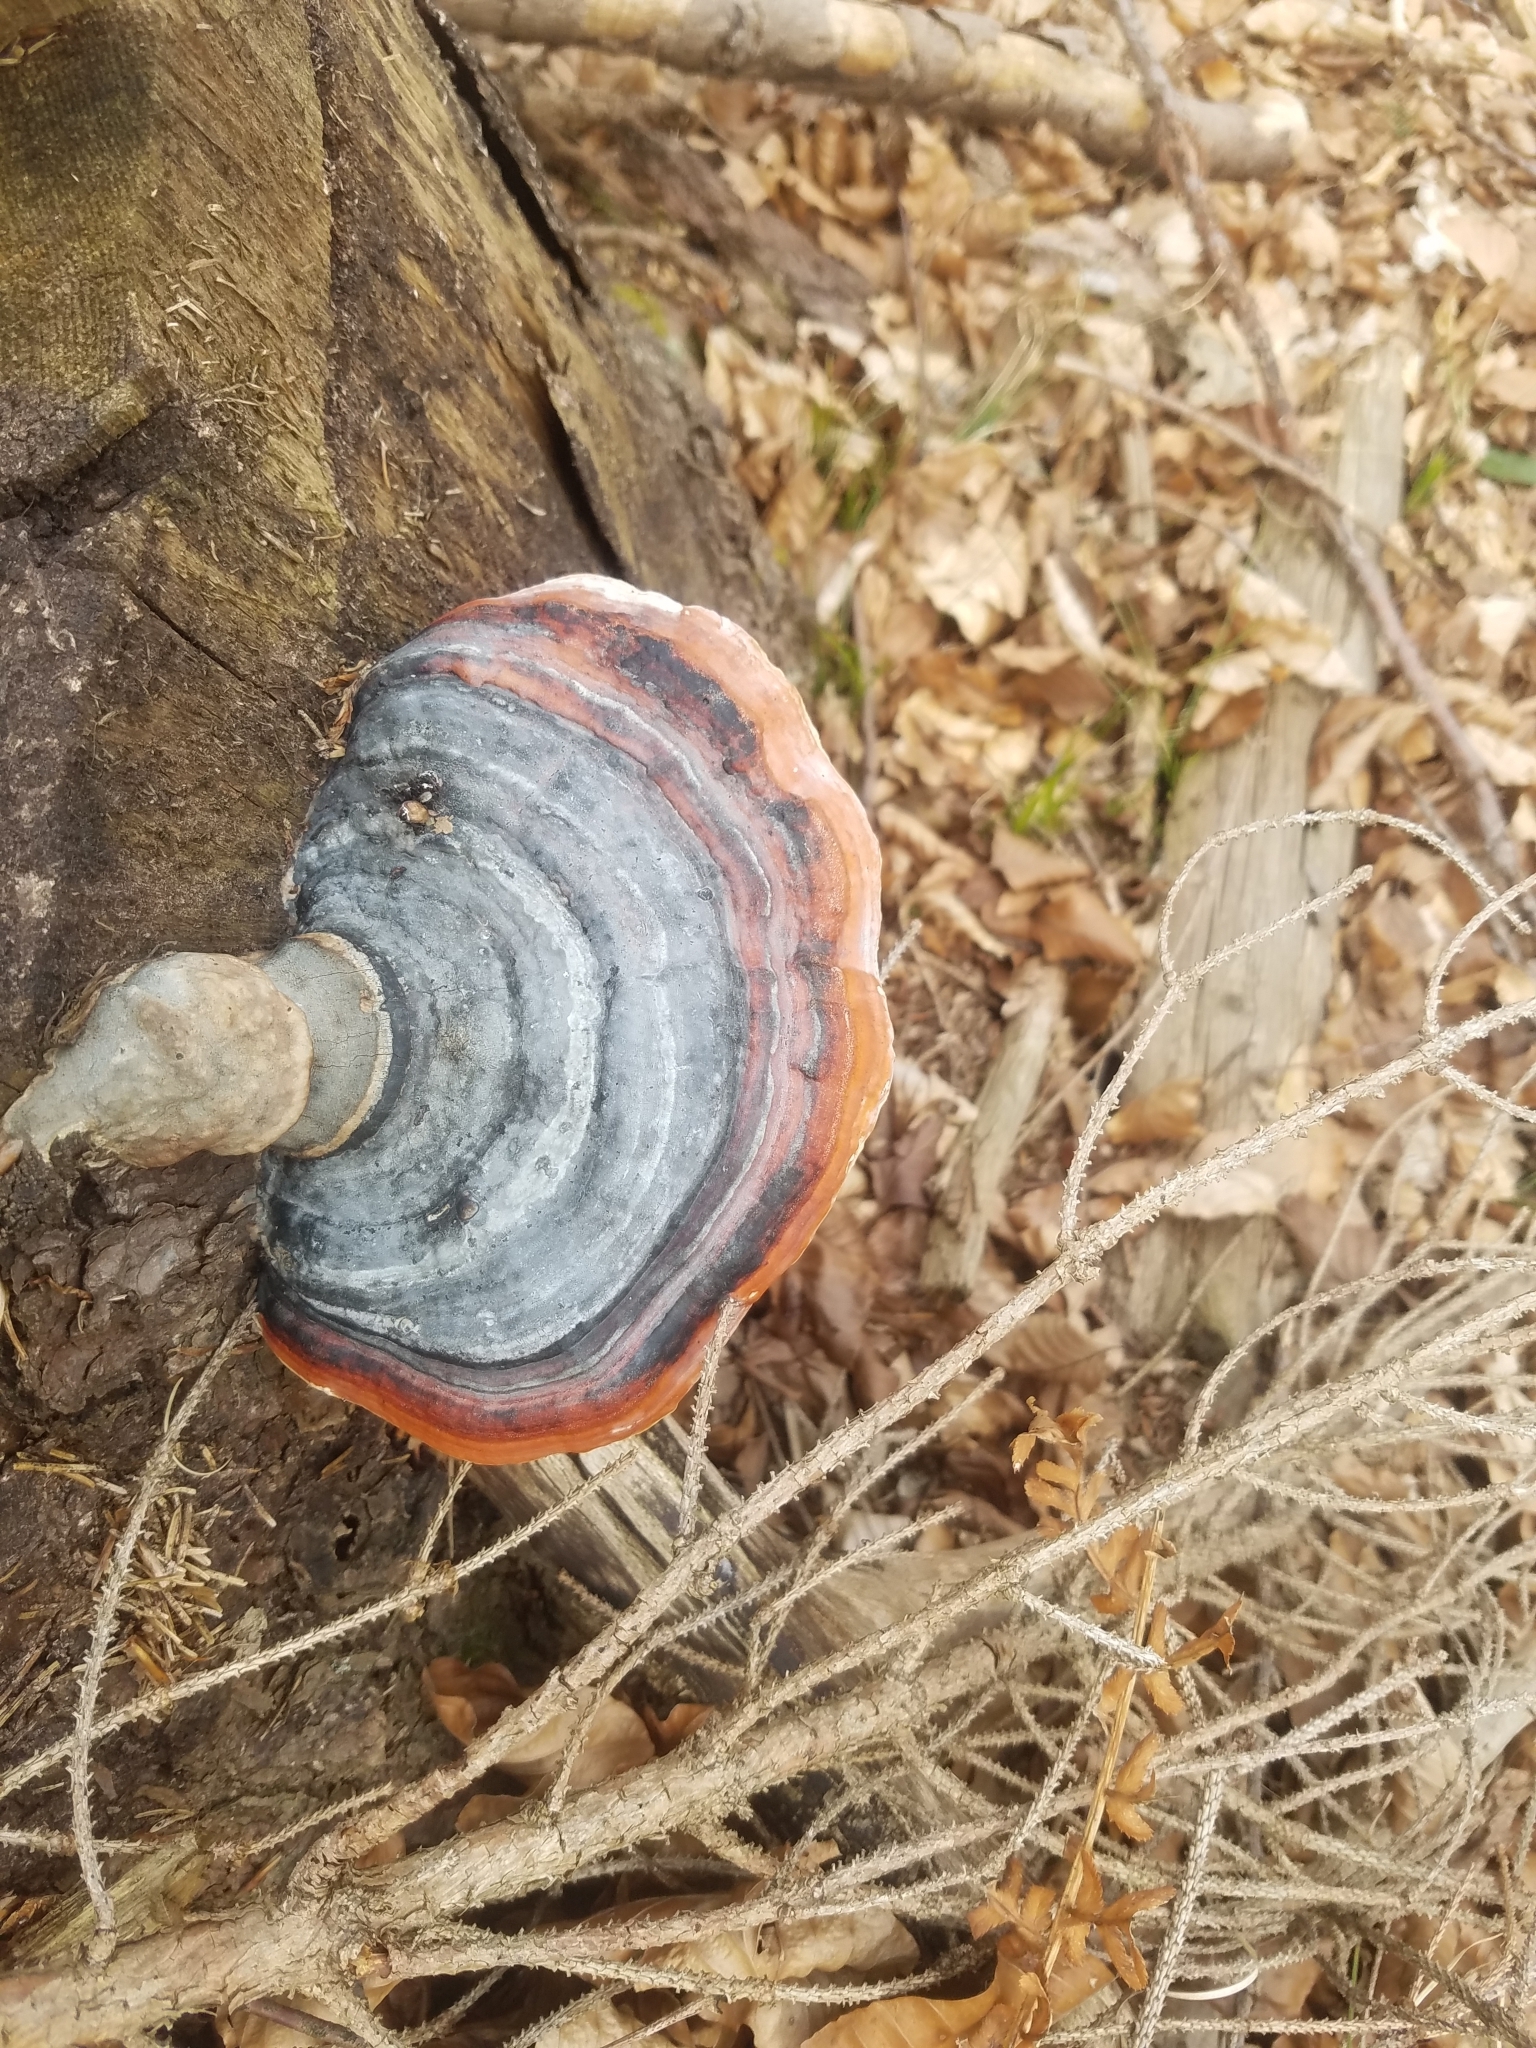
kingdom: Fungi
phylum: Basidiomycota
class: Agaricomycetes
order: Polyporales
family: Fomitopsidaceae
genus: Fomitopsis
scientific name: Fomitopsis pinicola
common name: Red-belted bracket
